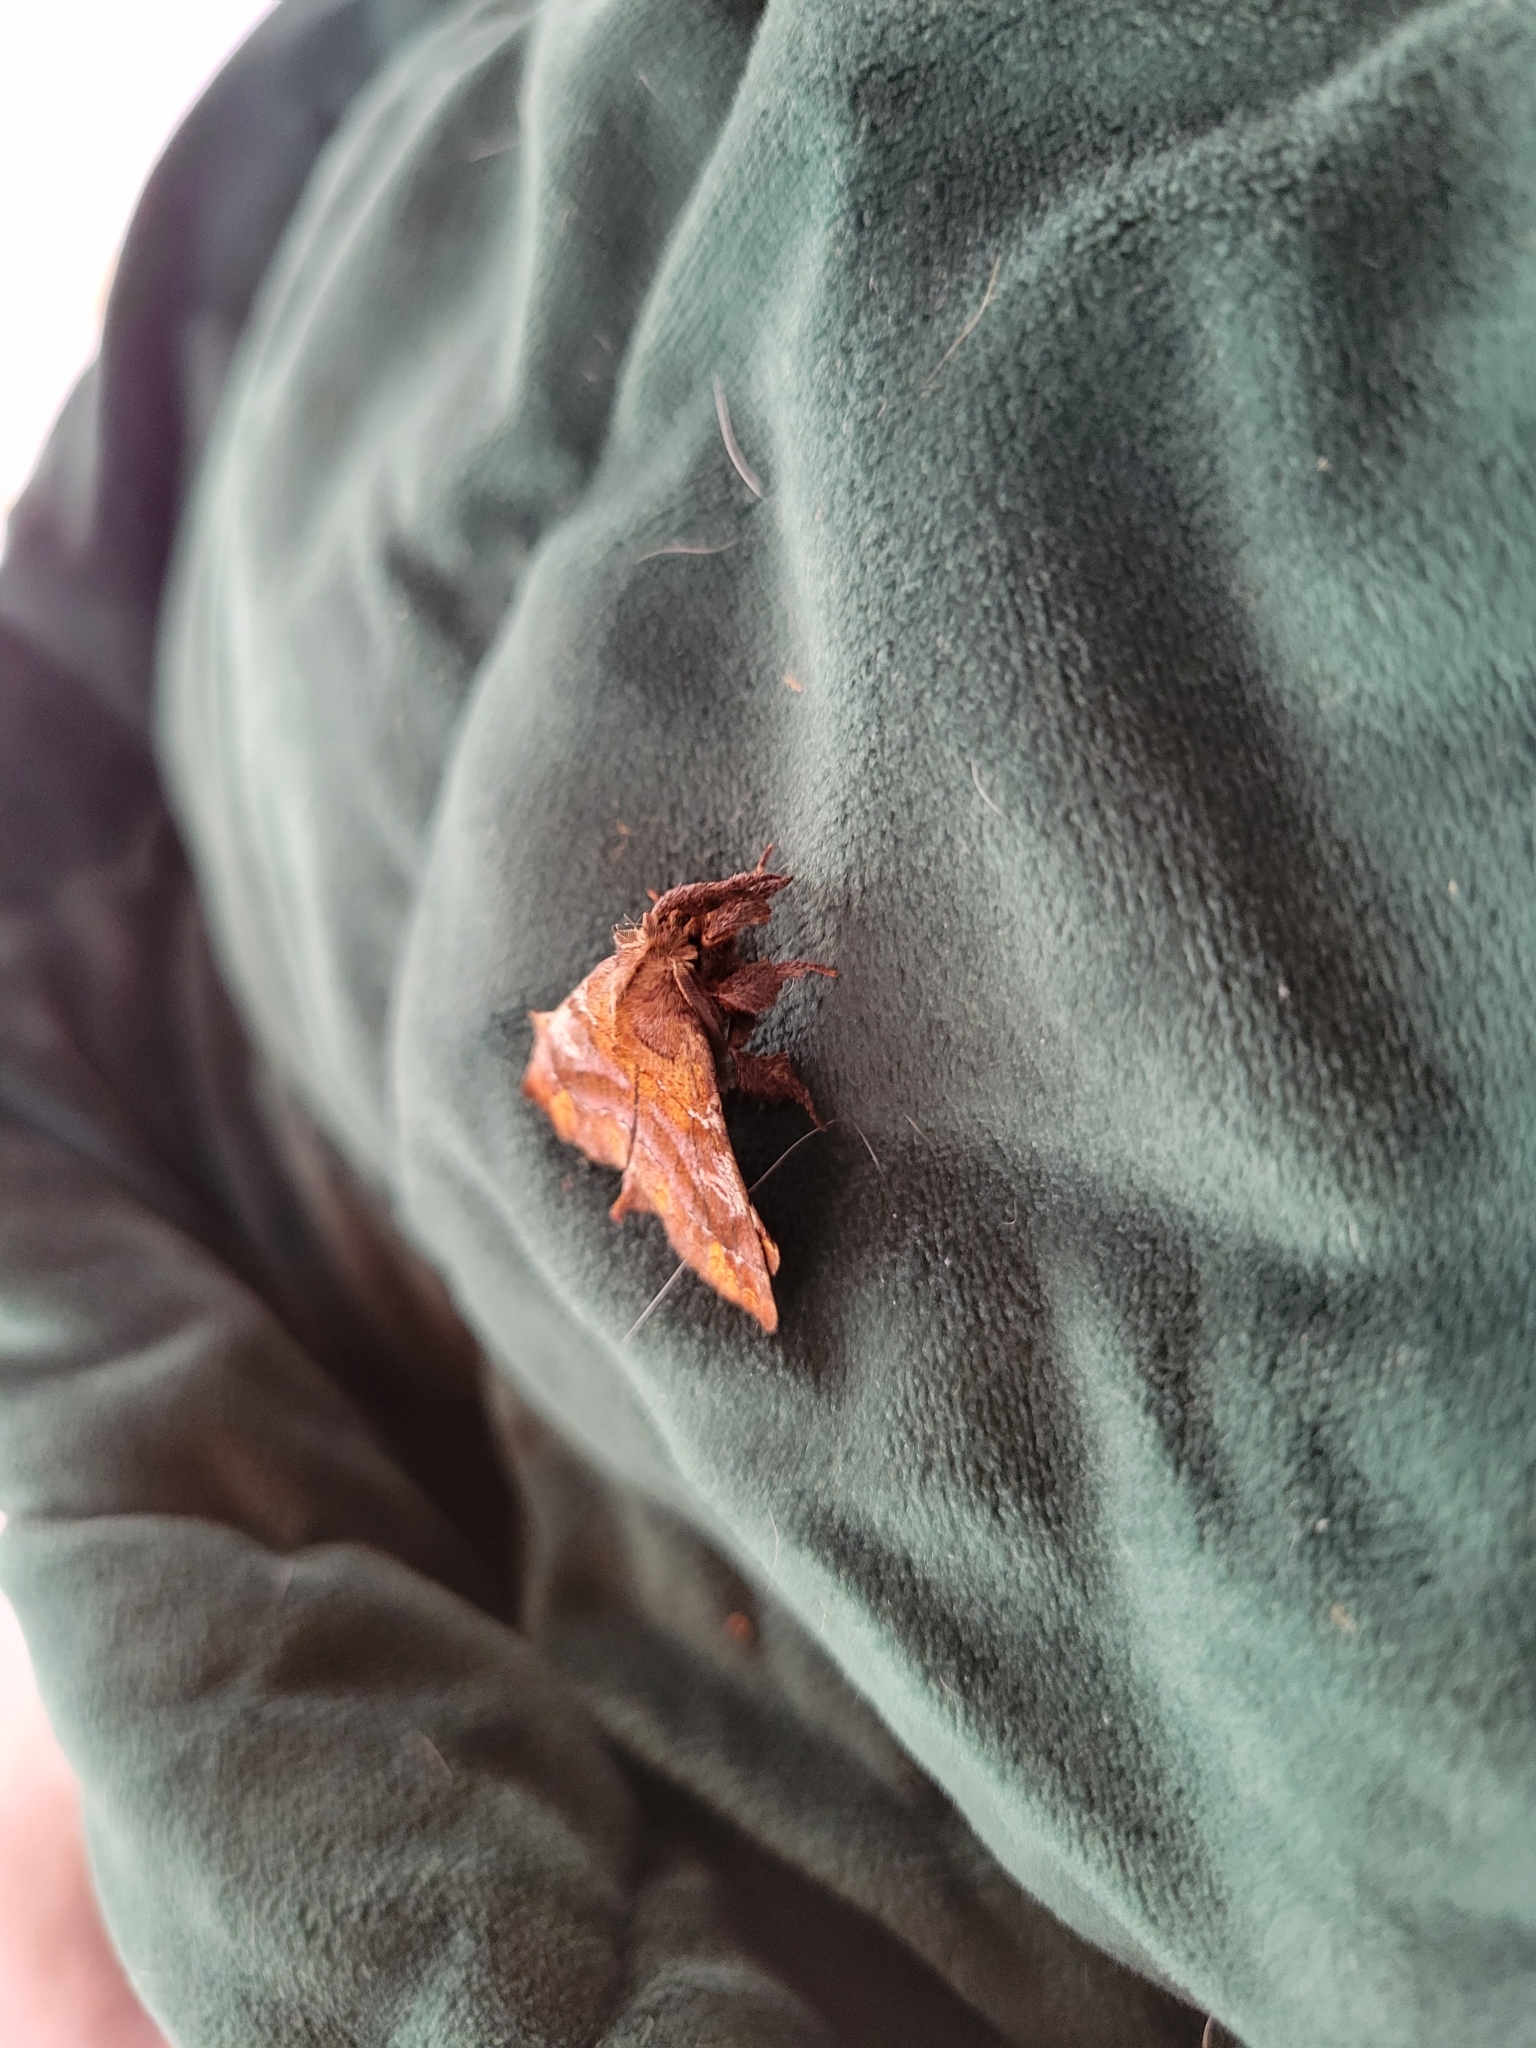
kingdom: Animalia
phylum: Arthropoda
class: Insecta
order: Lepidoptera
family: Apatelodidae
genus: Zanola
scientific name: Zanola verago
